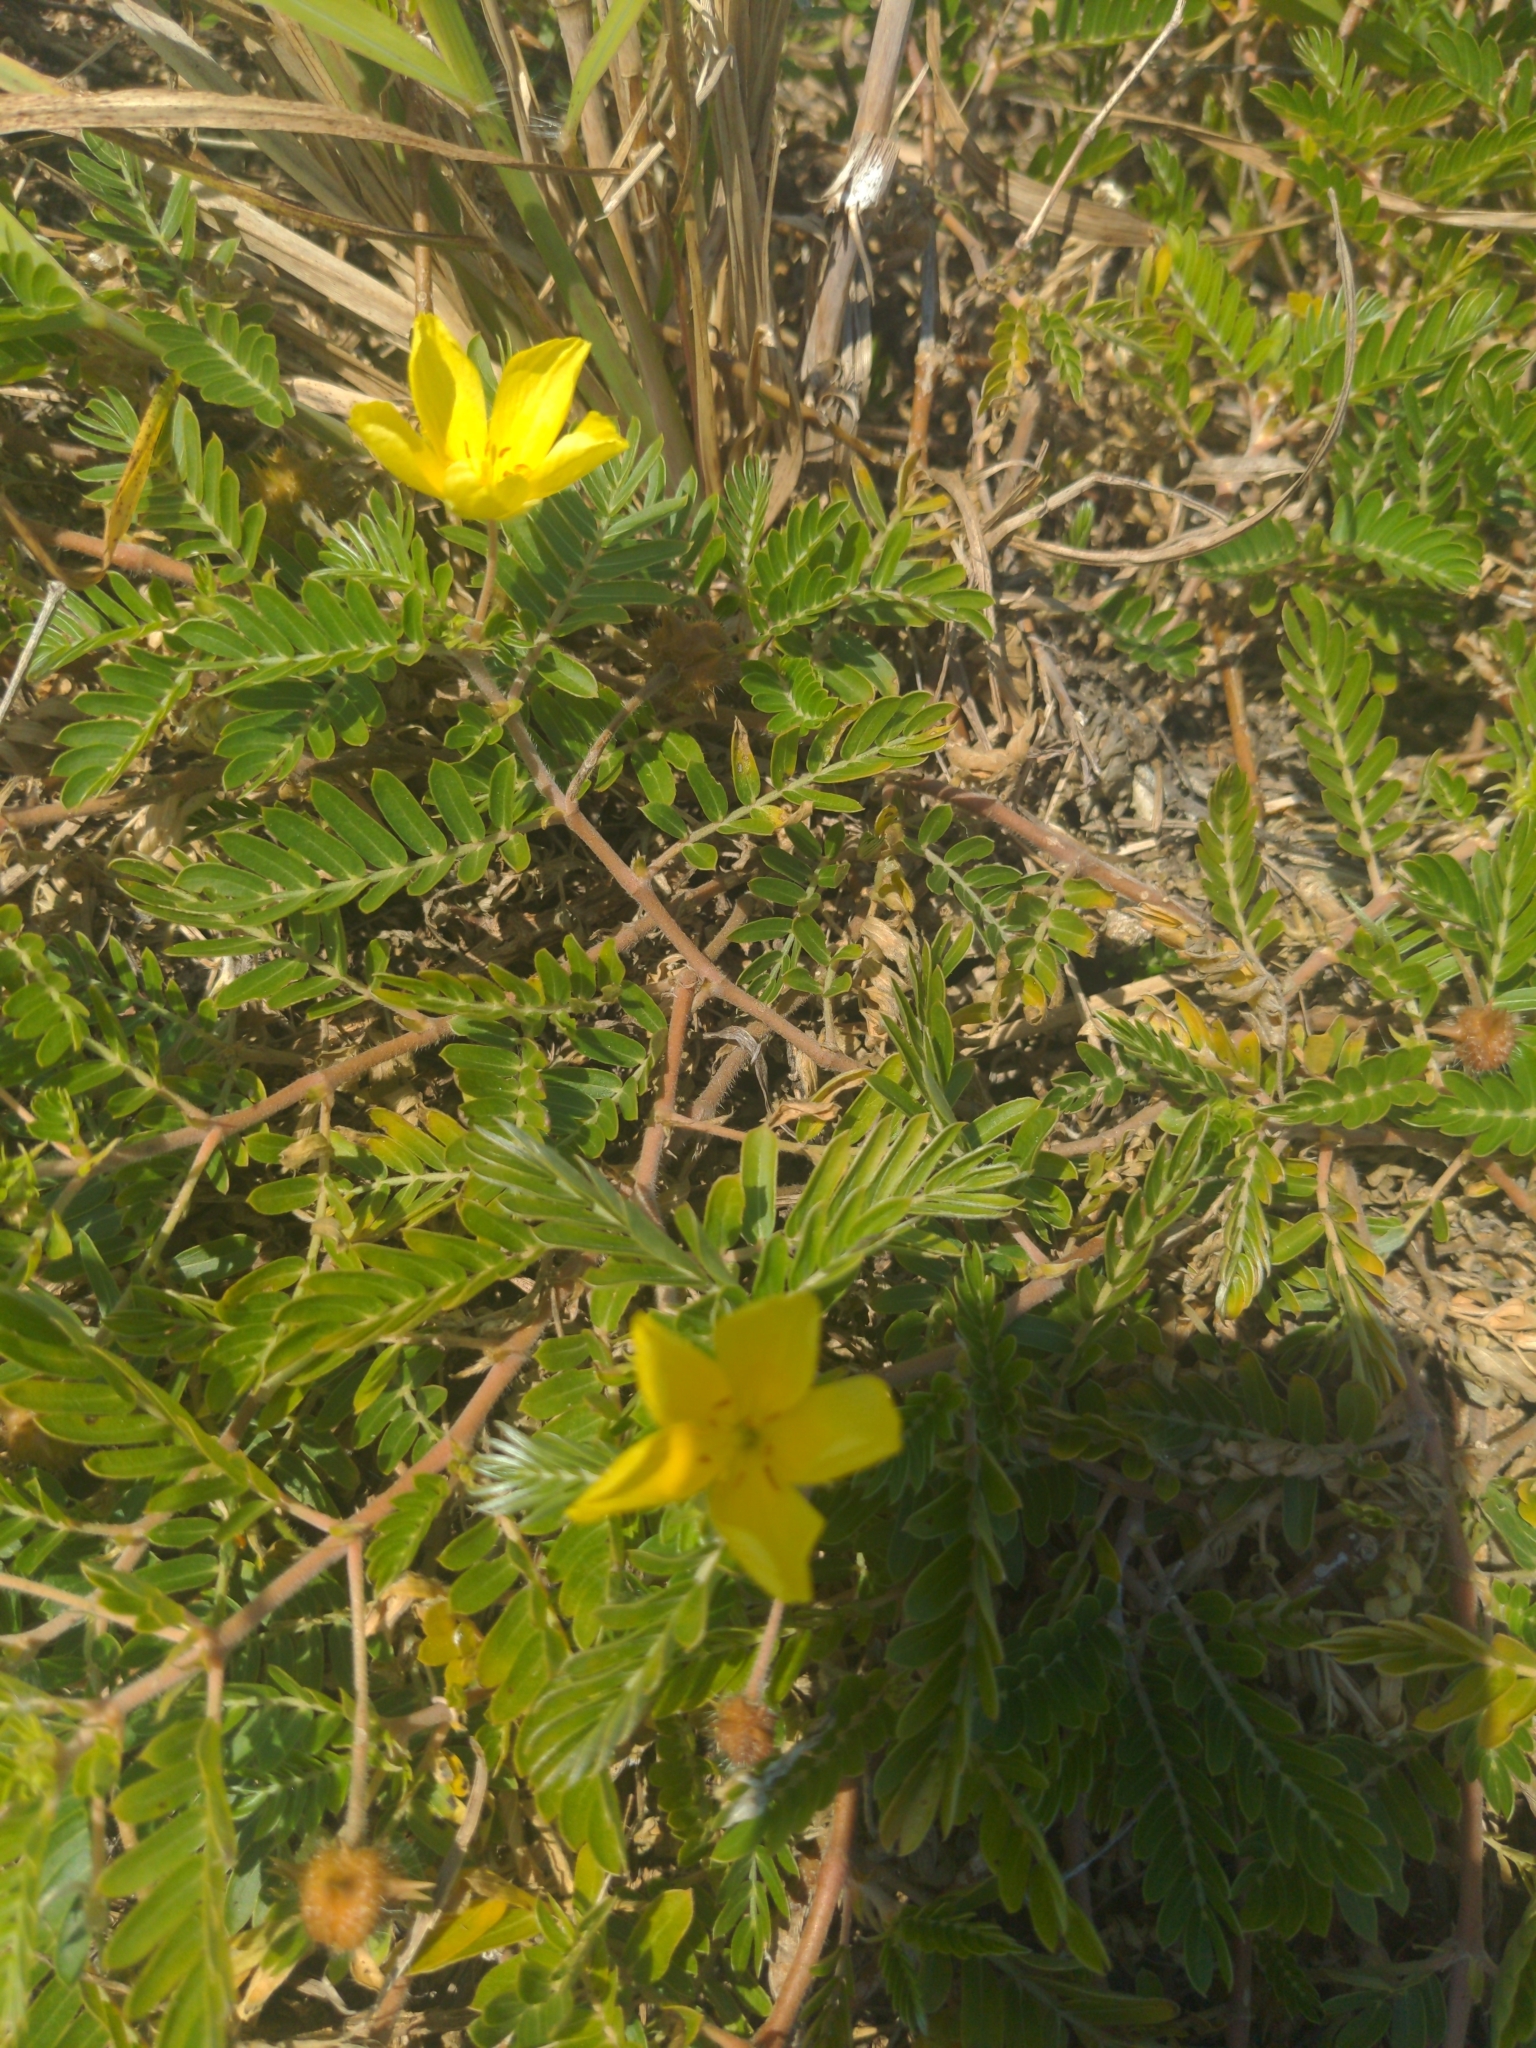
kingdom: Plantae
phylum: Tracheophyta
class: Magnoliopsida
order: Zygophyllales
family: Zygophyllaceae
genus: Tribulus
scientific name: Tribulus terrestris
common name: Puncturevine
